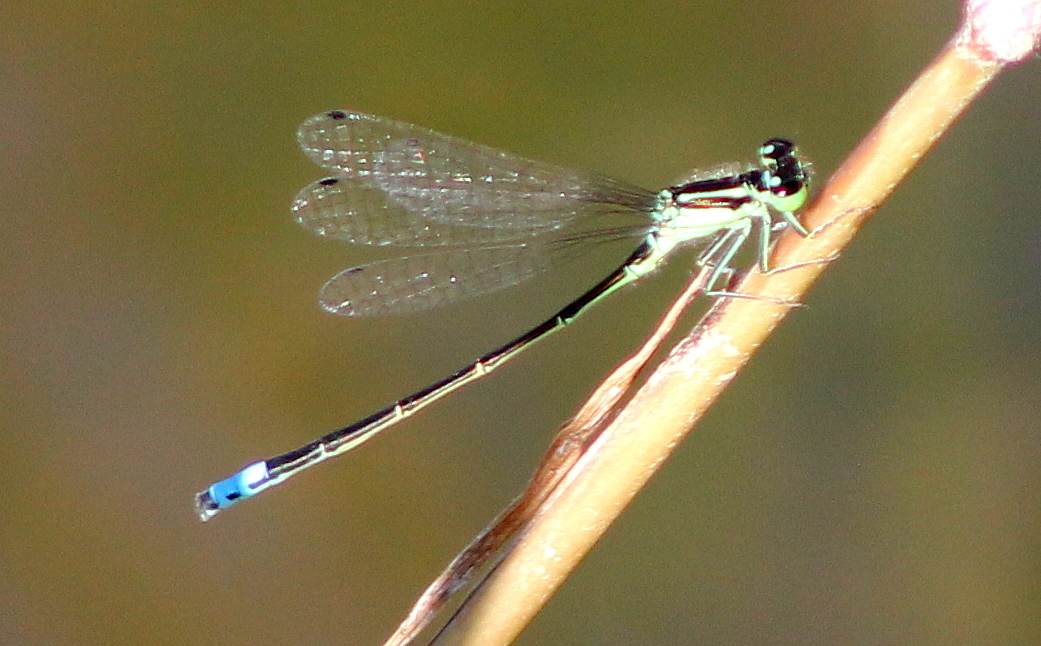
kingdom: Animalia
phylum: Arthropoda
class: Insecta
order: Odonata
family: Coenagrionidae
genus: Ischnura
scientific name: Ischnura verticalis
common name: Eastern forktail
